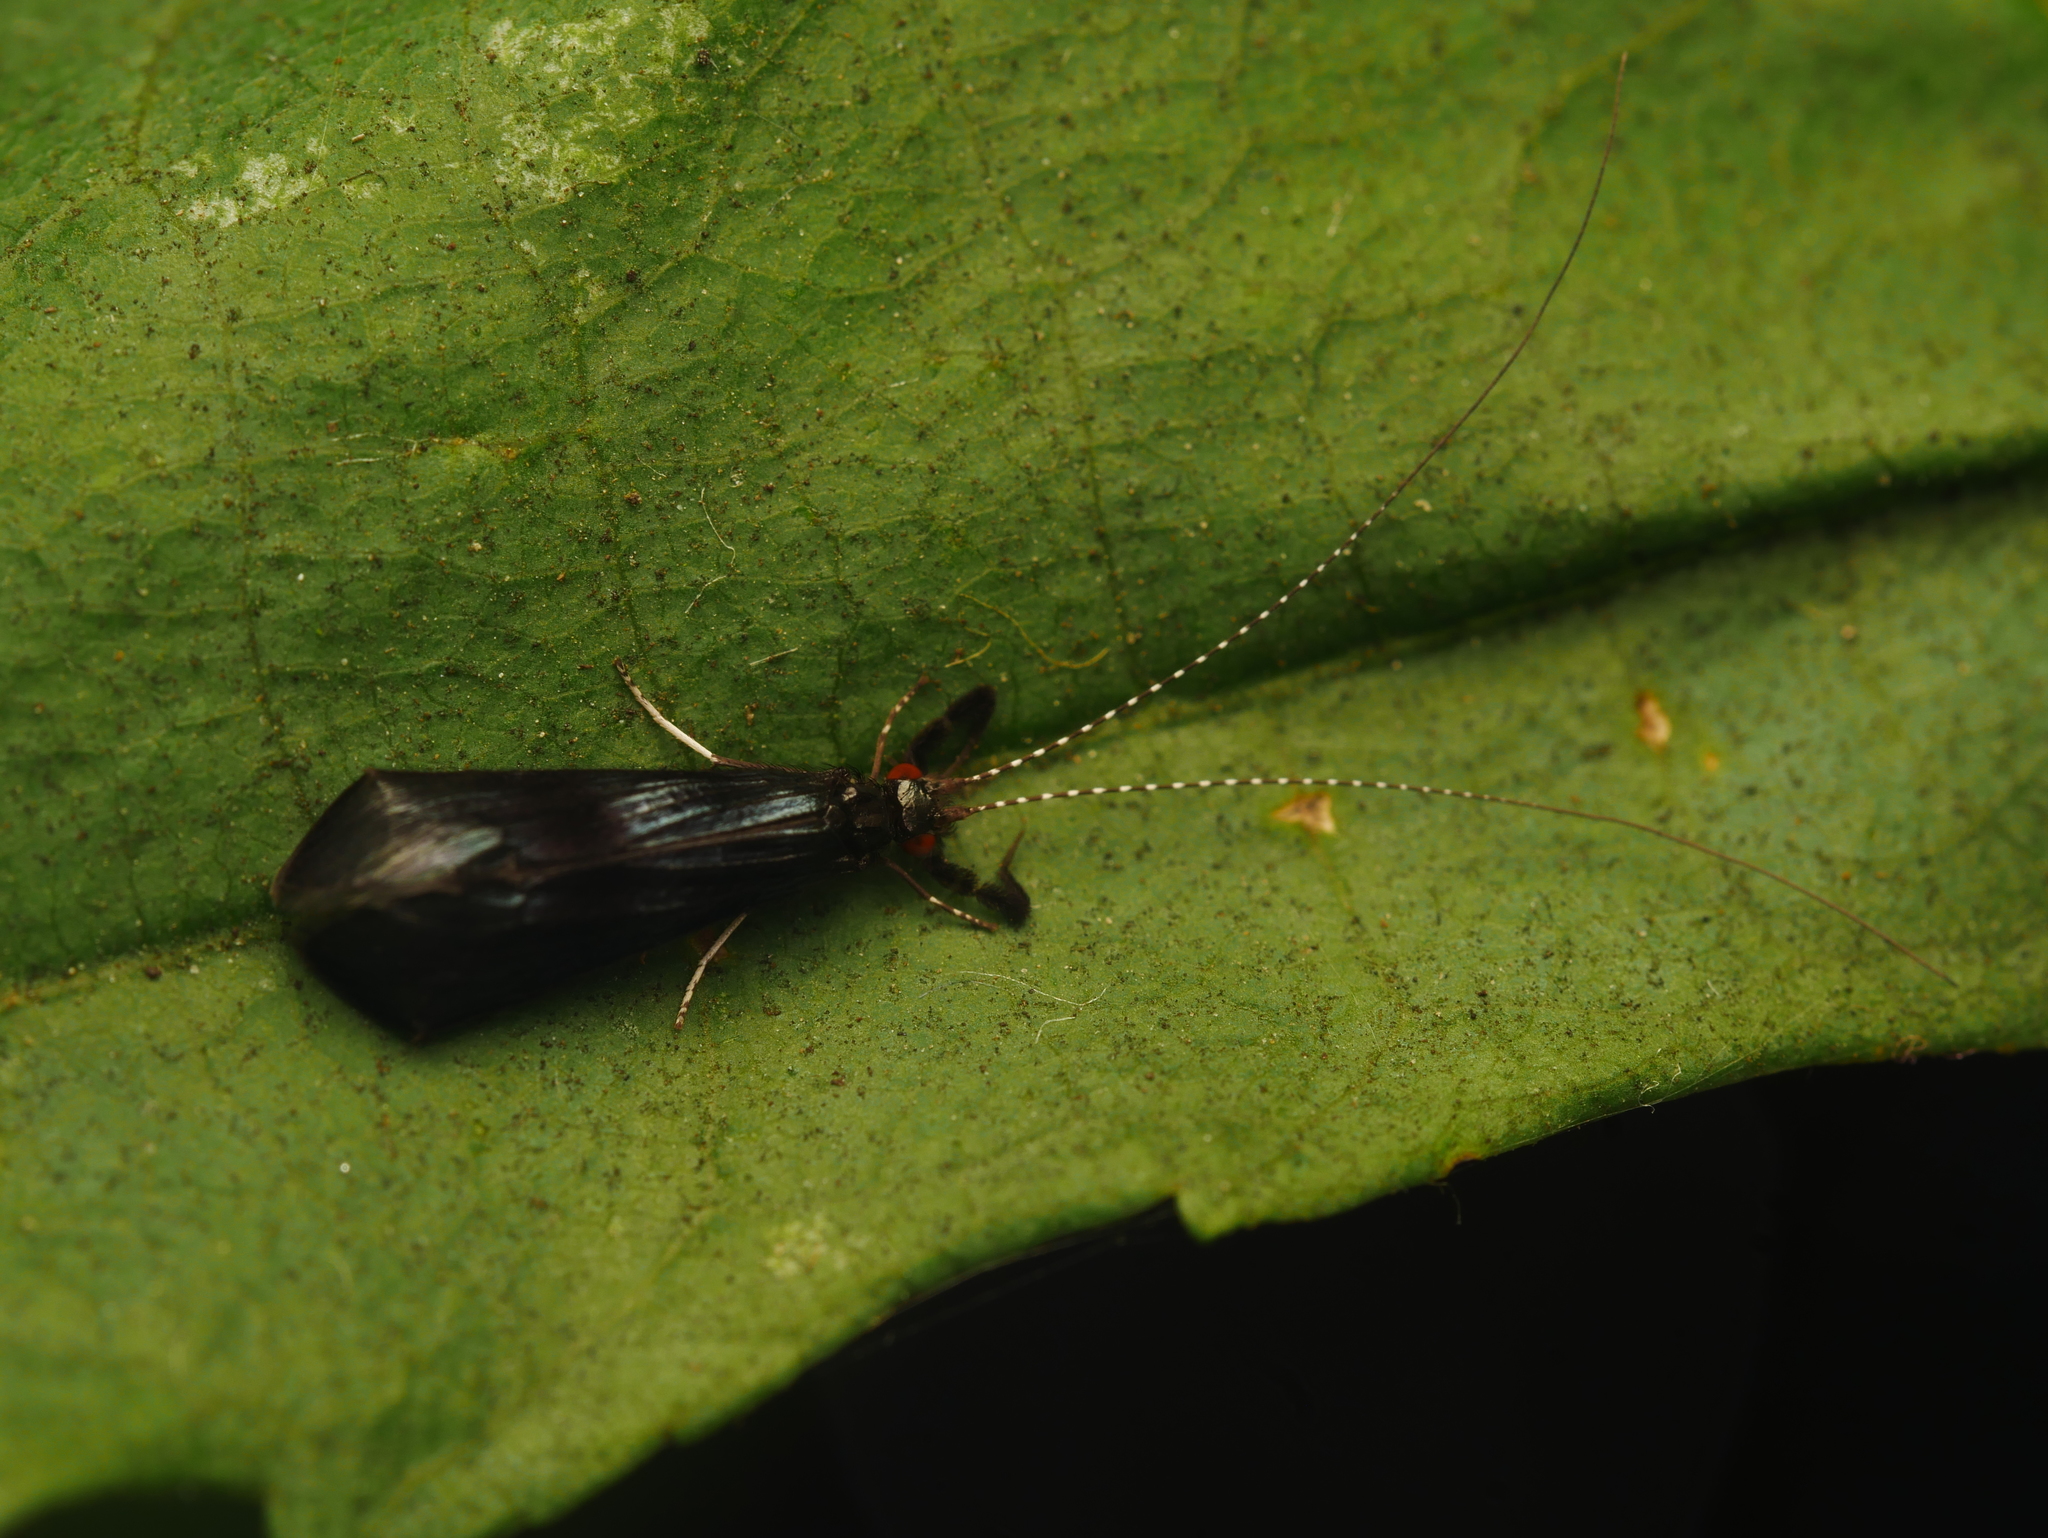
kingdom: Animalia
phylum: Arthropoda
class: Insecta
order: Trichoptera
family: Leptoceridae
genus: Mystacides
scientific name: Mystacides azureus
